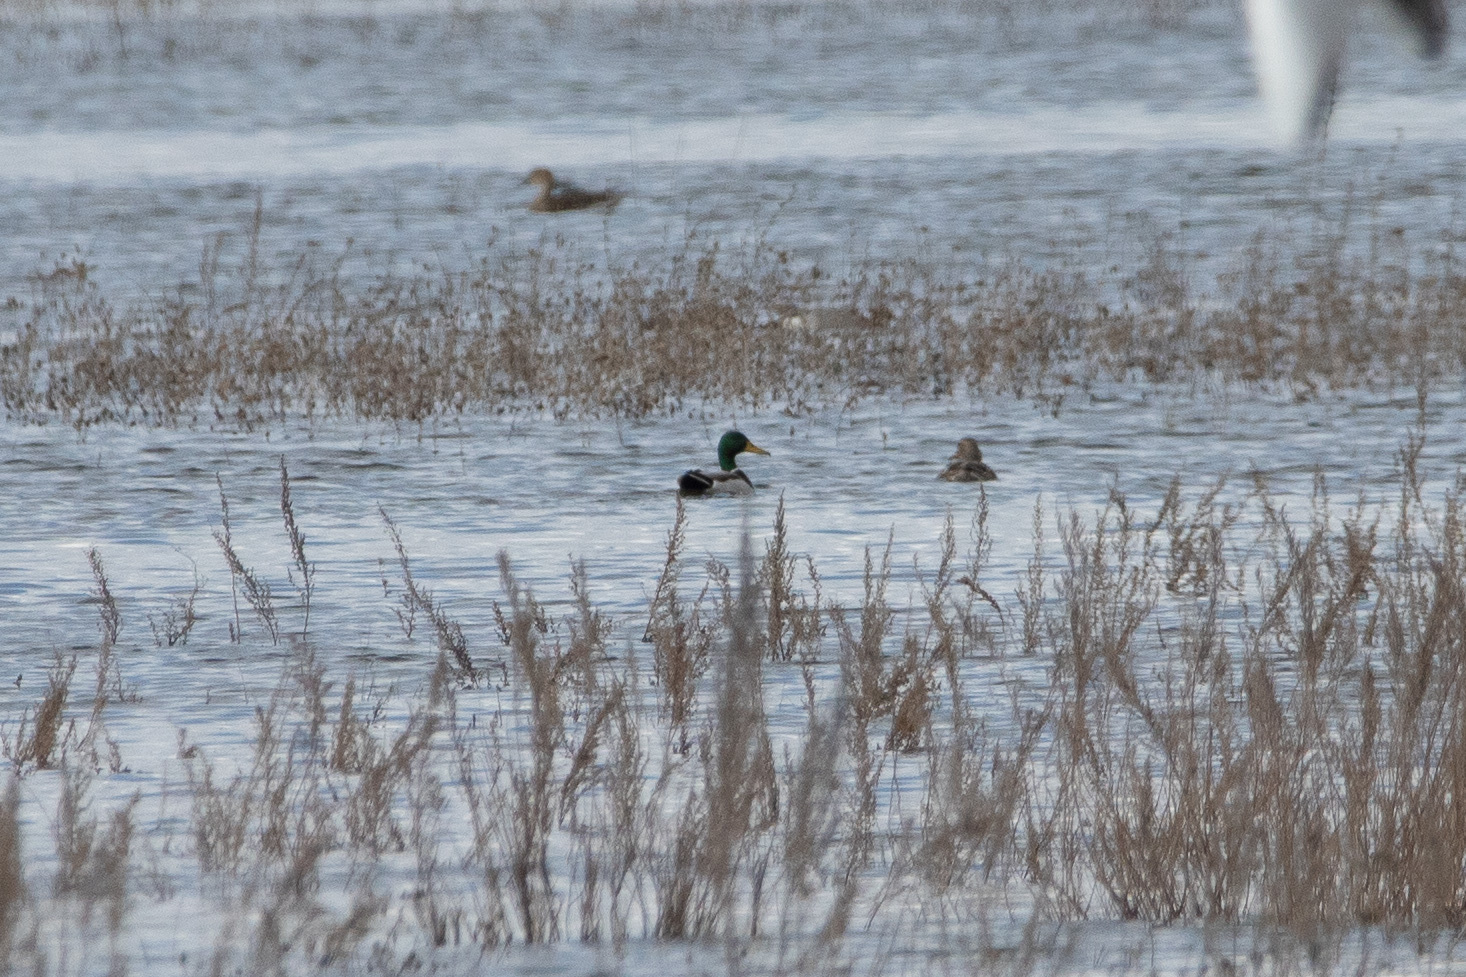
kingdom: Animalia
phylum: Chordata
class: Aves
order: Anseriformes
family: Anatidae
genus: Anas
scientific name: Anas platyrhynchos
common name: Mallard
